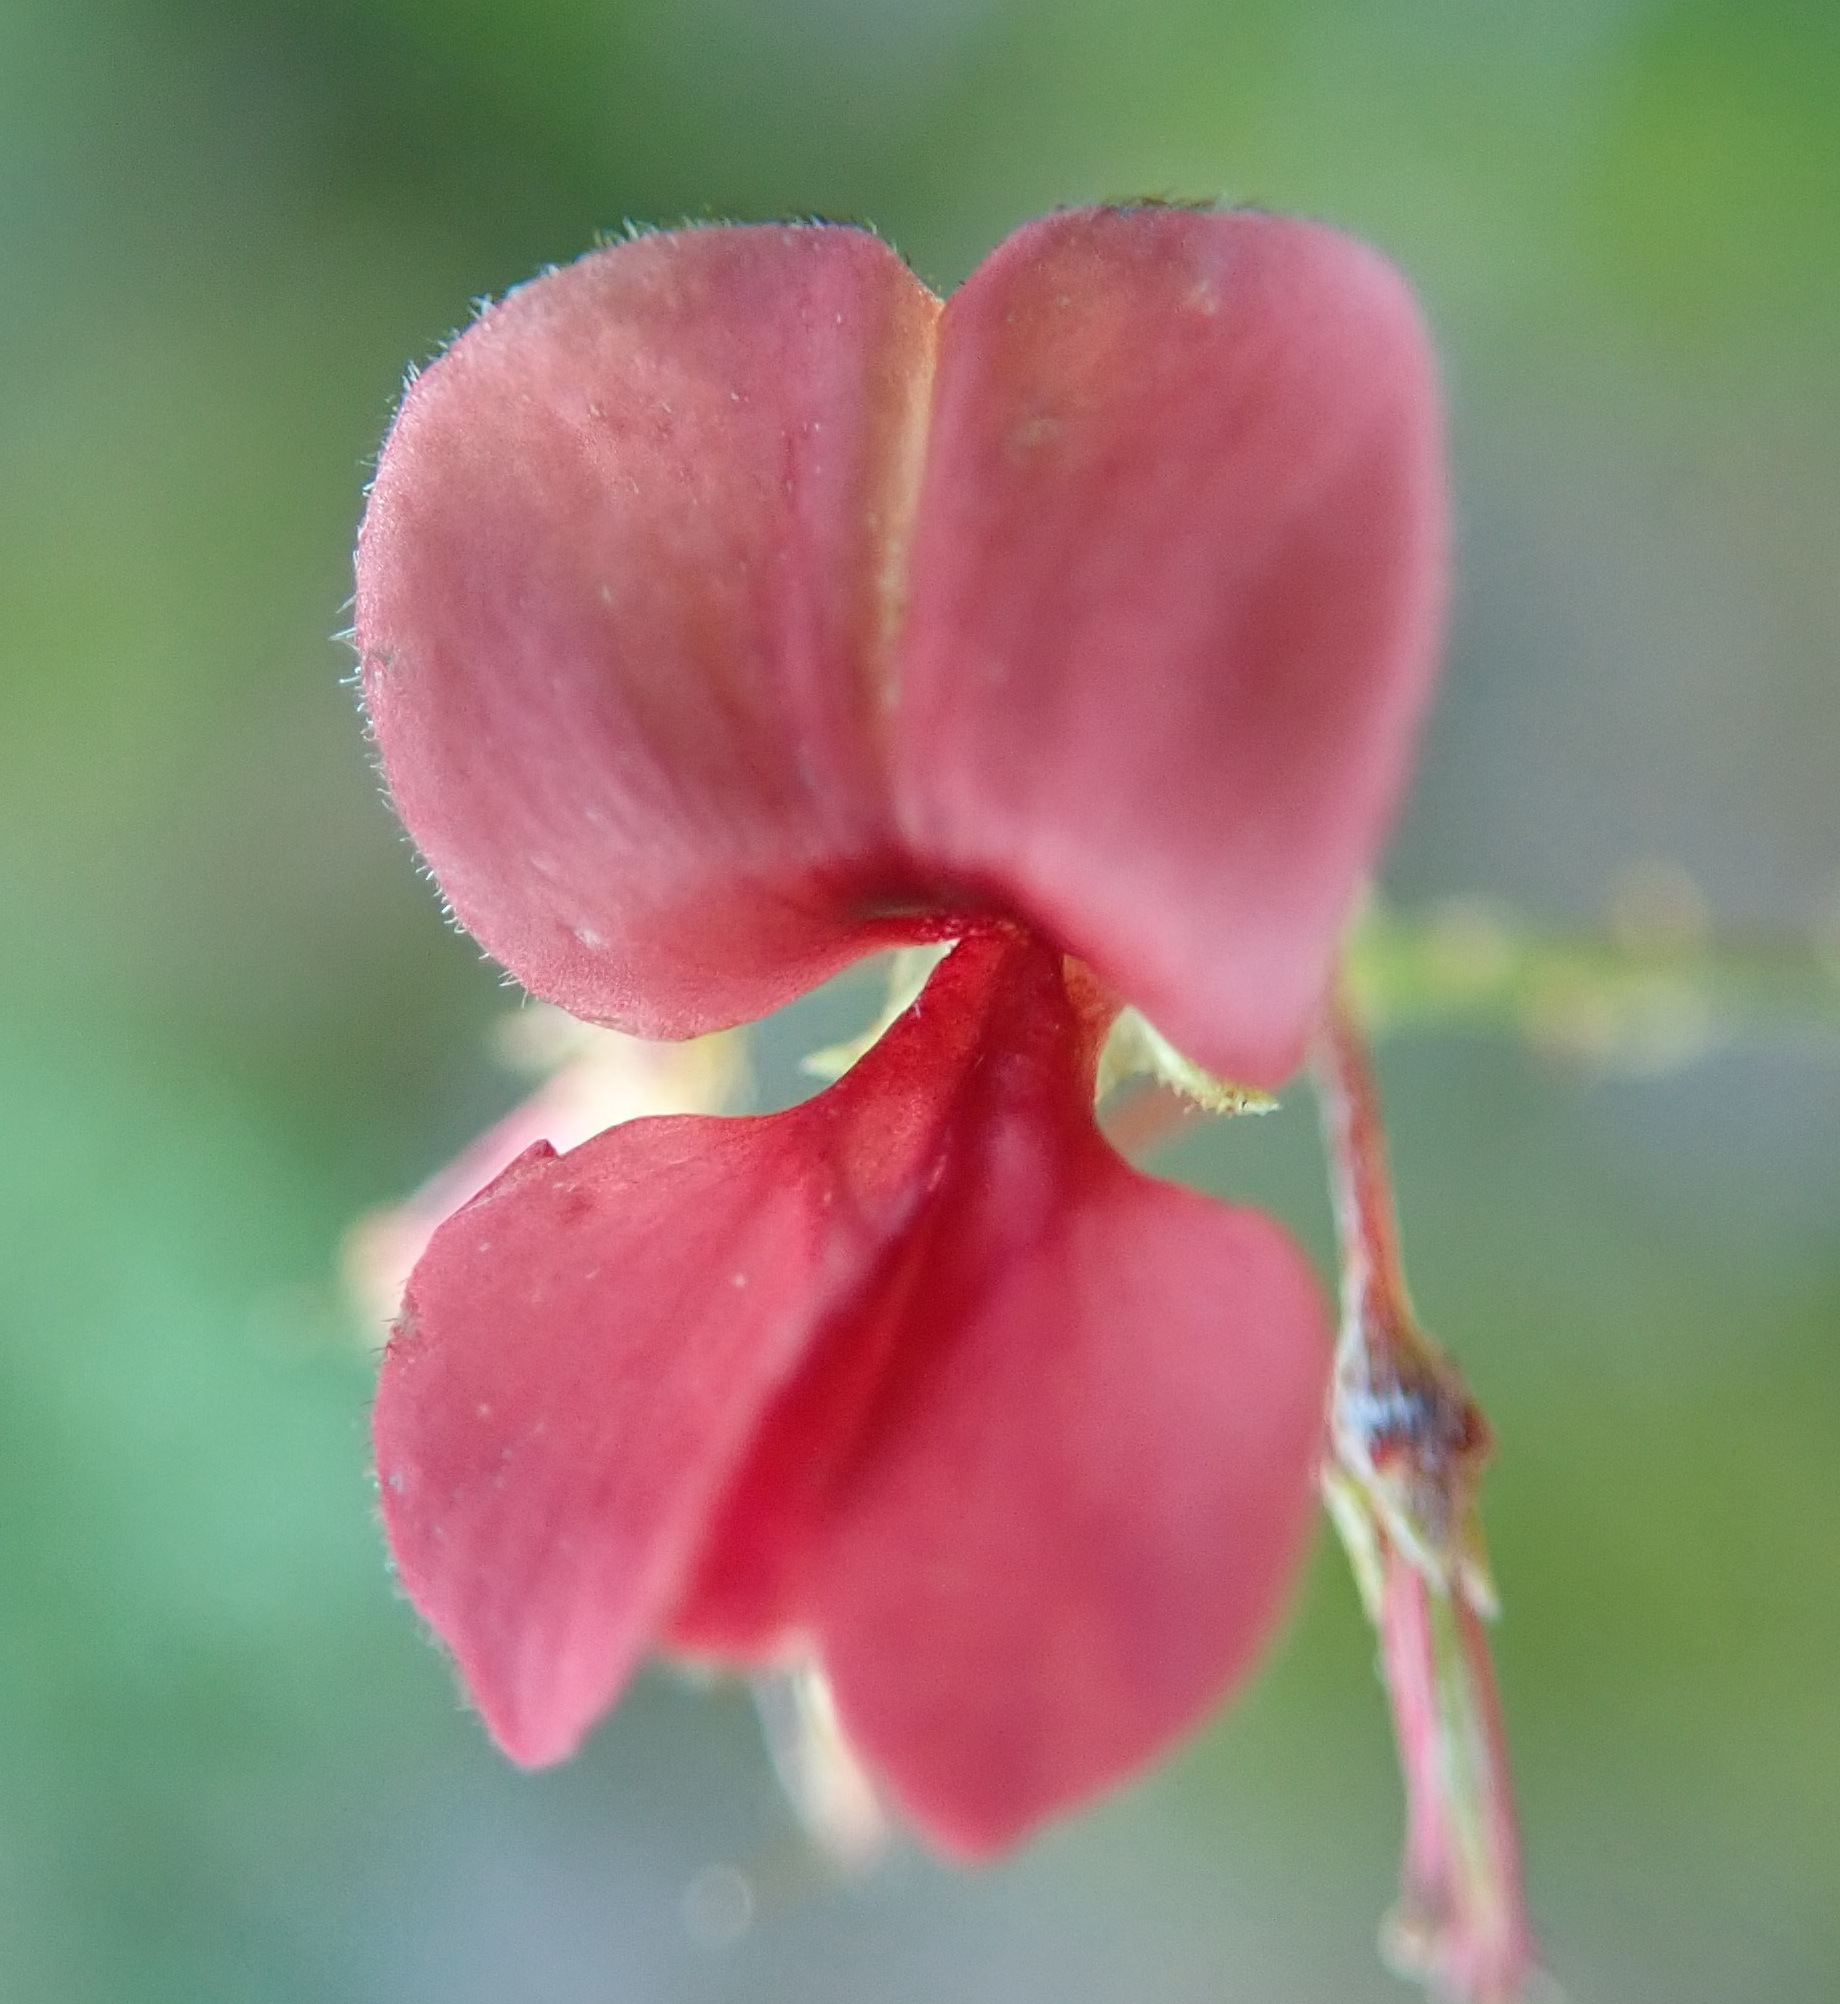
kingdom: Plantae
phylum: Tracheophyta
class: Magnoliopsida
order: Fabales
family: Fabaceae
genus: Indigofera
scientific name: Indigofera verrucosa
